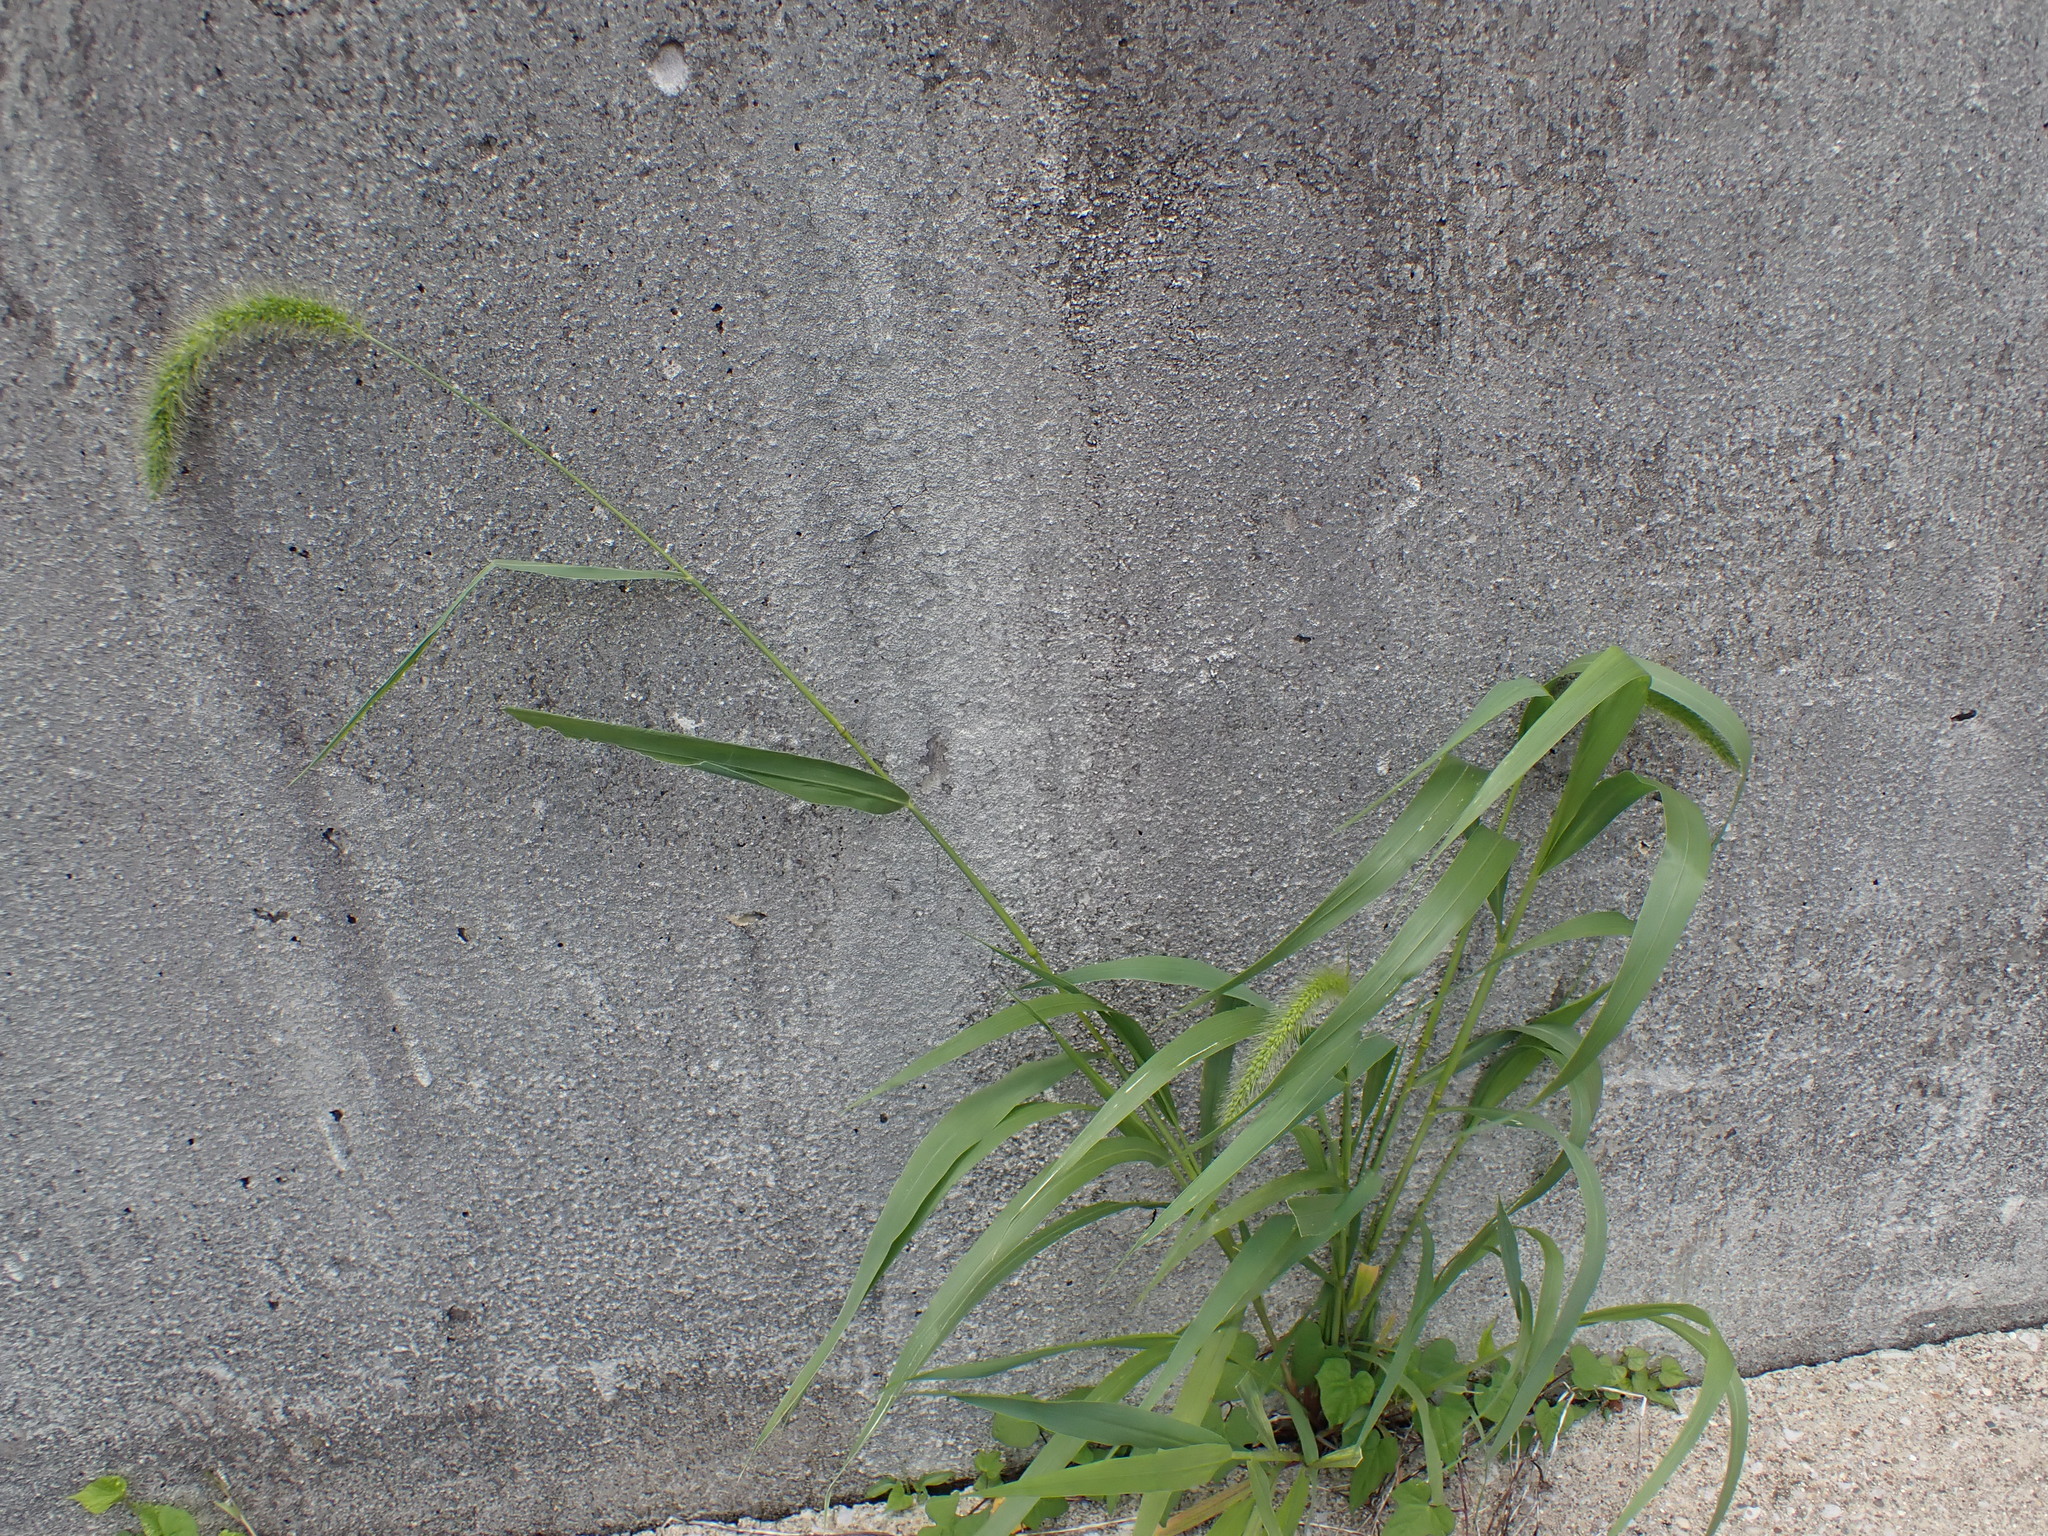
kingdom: Plantae
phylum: Tracheophyta
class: Liliopsida
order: Poales
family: Poaceae
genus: Setaria
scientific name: Setaria faberi
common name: Nodding bristle-grass
